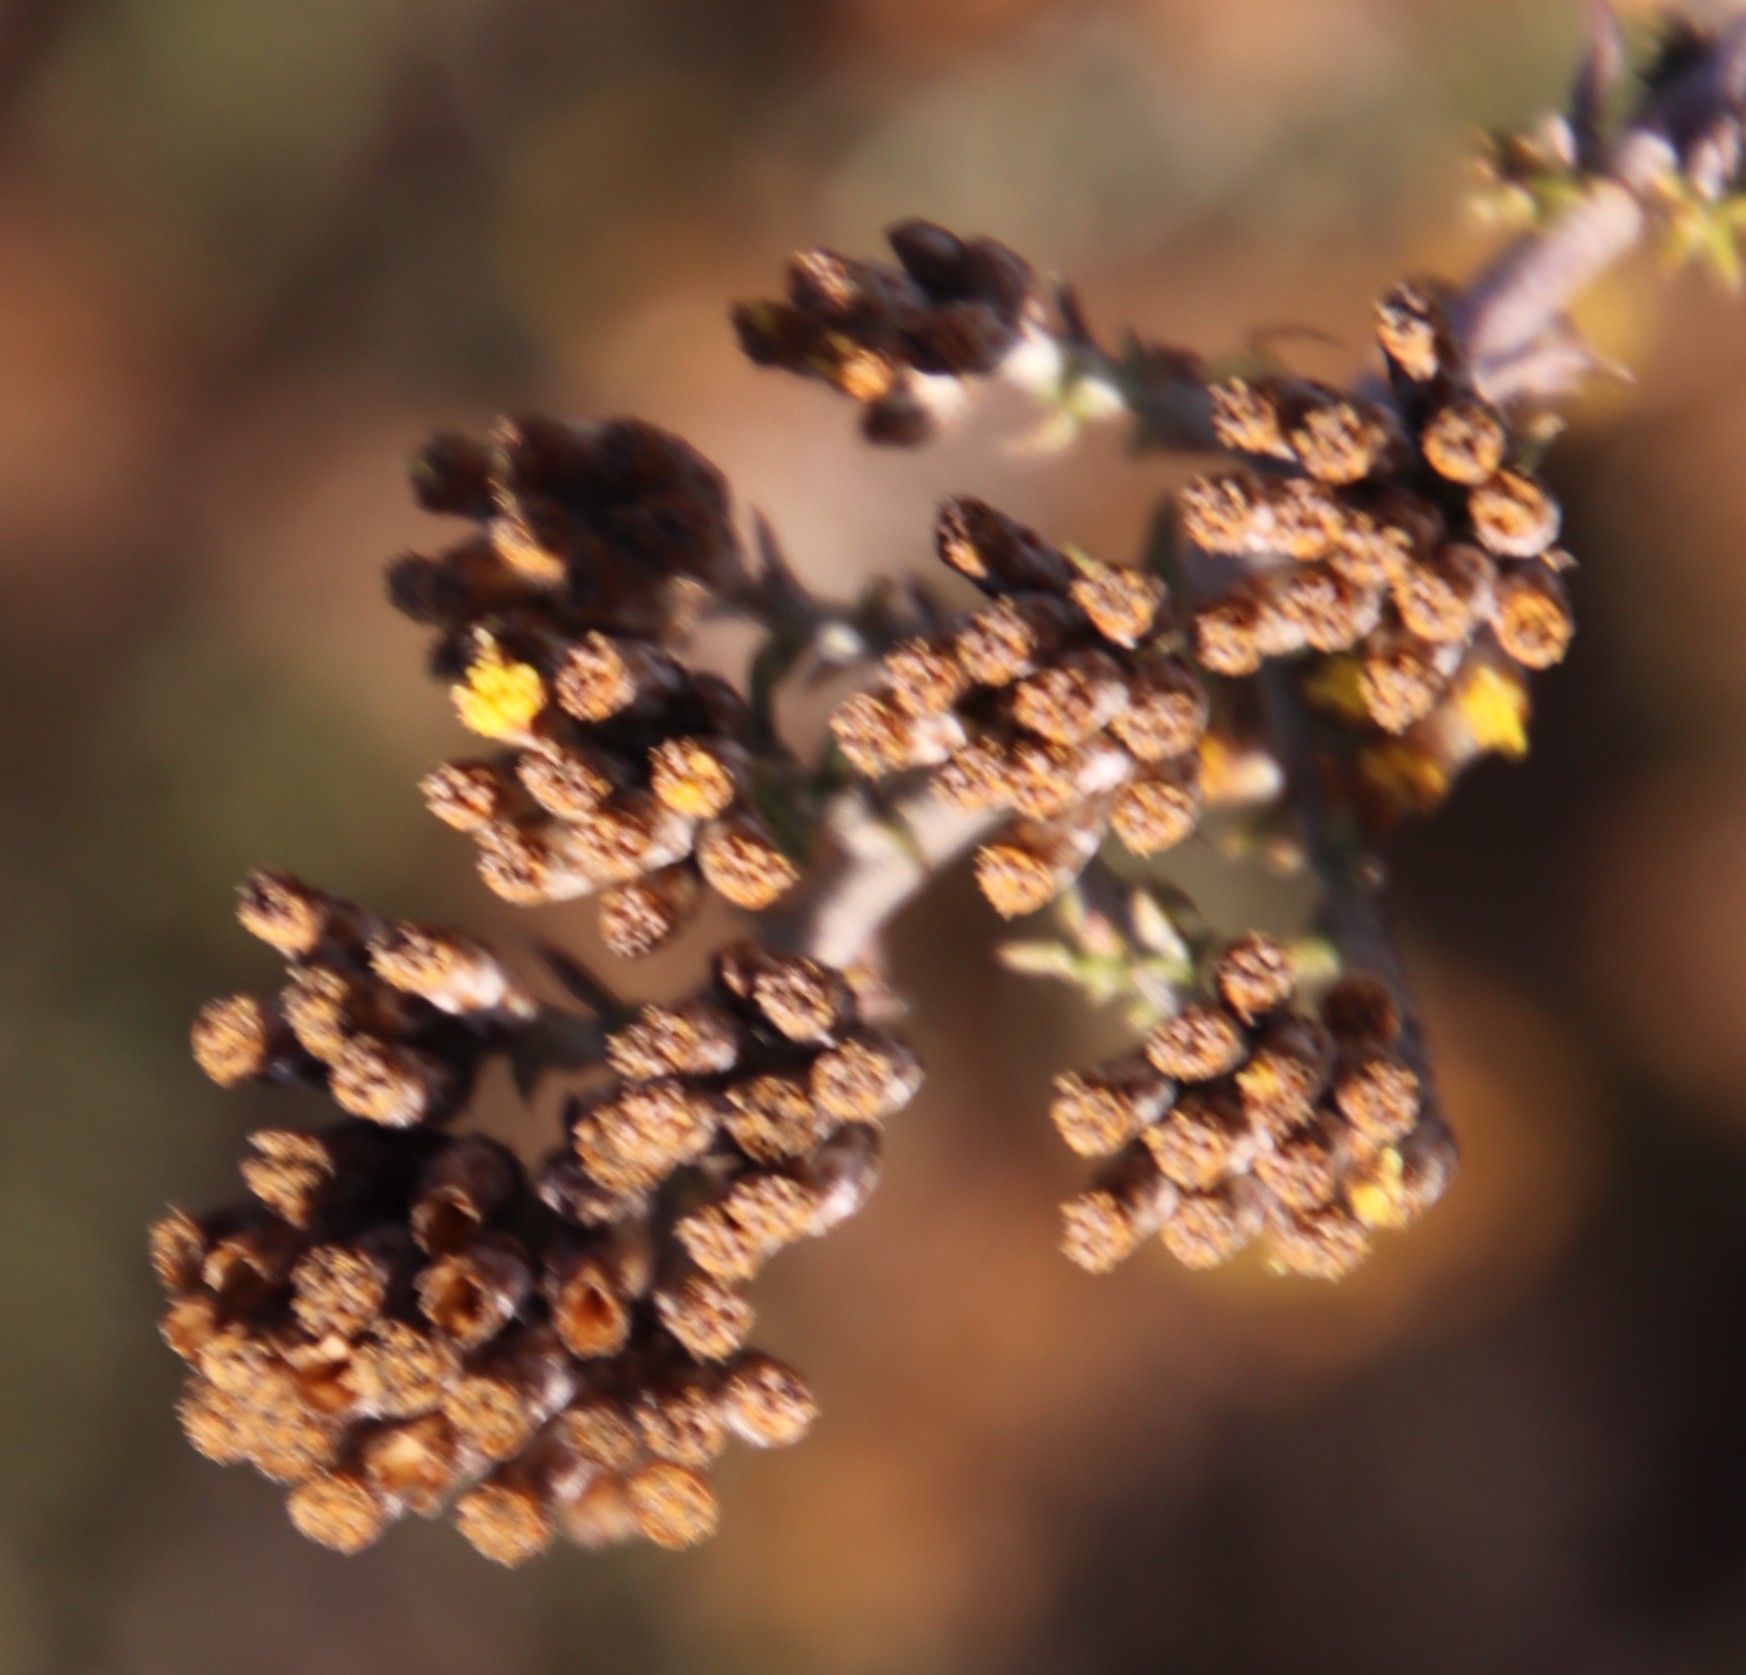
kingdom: Plantae
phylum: Tracheophyta
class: Magnoliopsida
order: Asterales
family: Asteraceae
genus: Metalasia
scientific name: Metalasia octoflora
